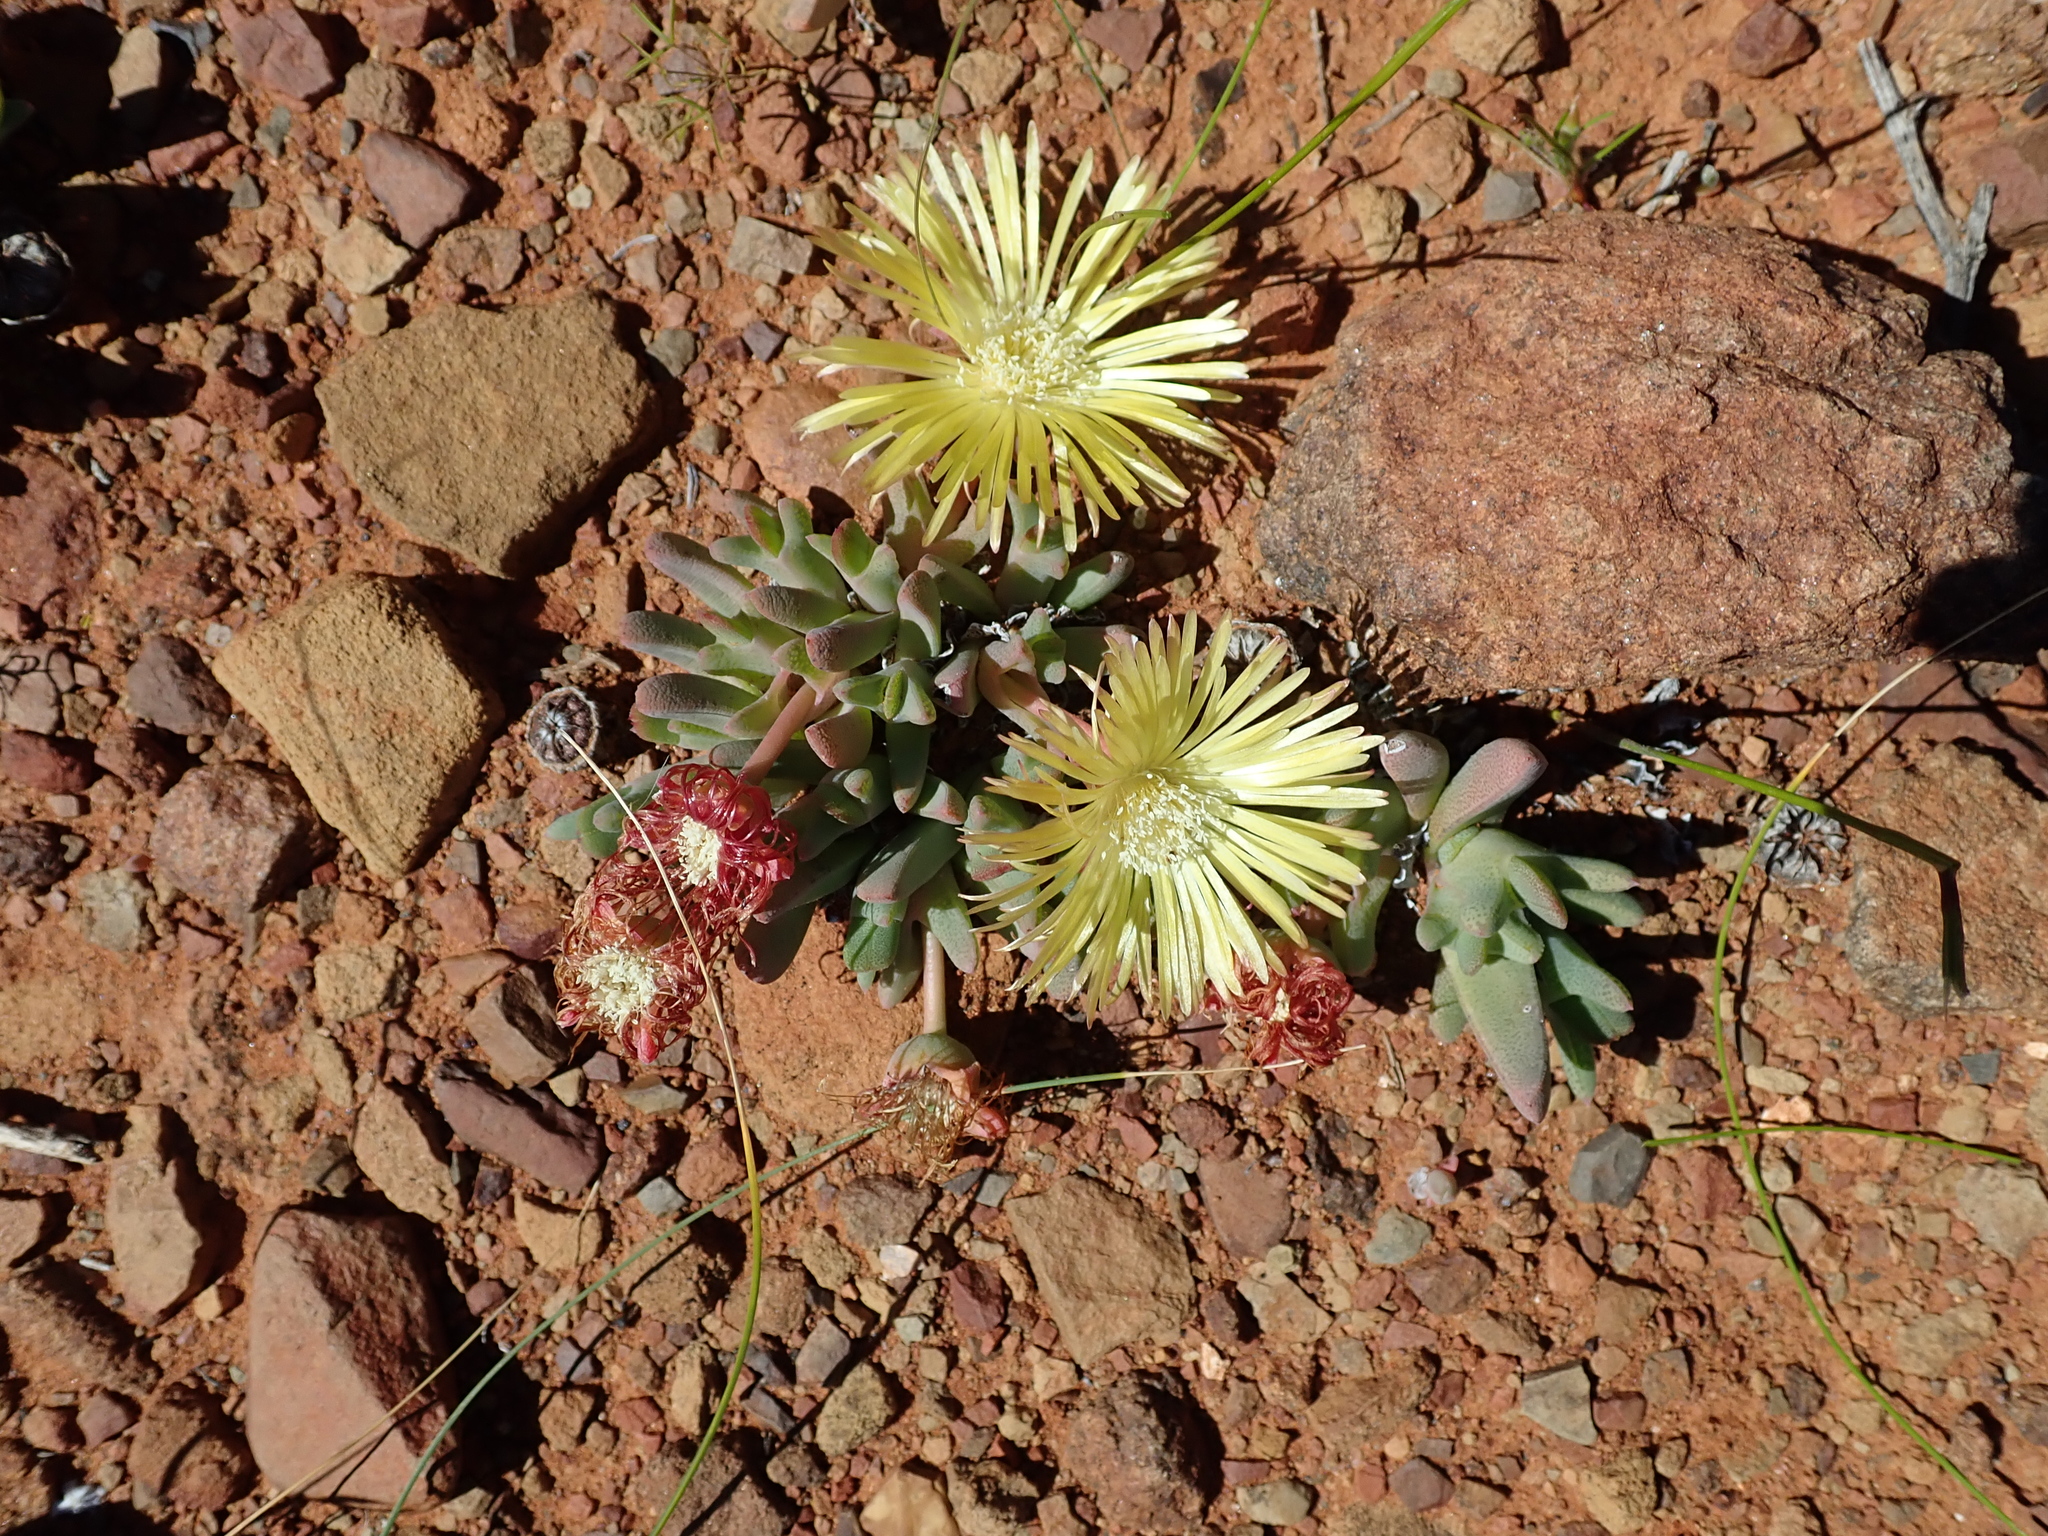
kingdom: Plantae
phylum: Tracheophyta
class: Magnoliopsida
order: Caryophyllales
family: Aizoaceae
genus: Cheiridopsis
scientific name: Cheiridopsis namaquensis
